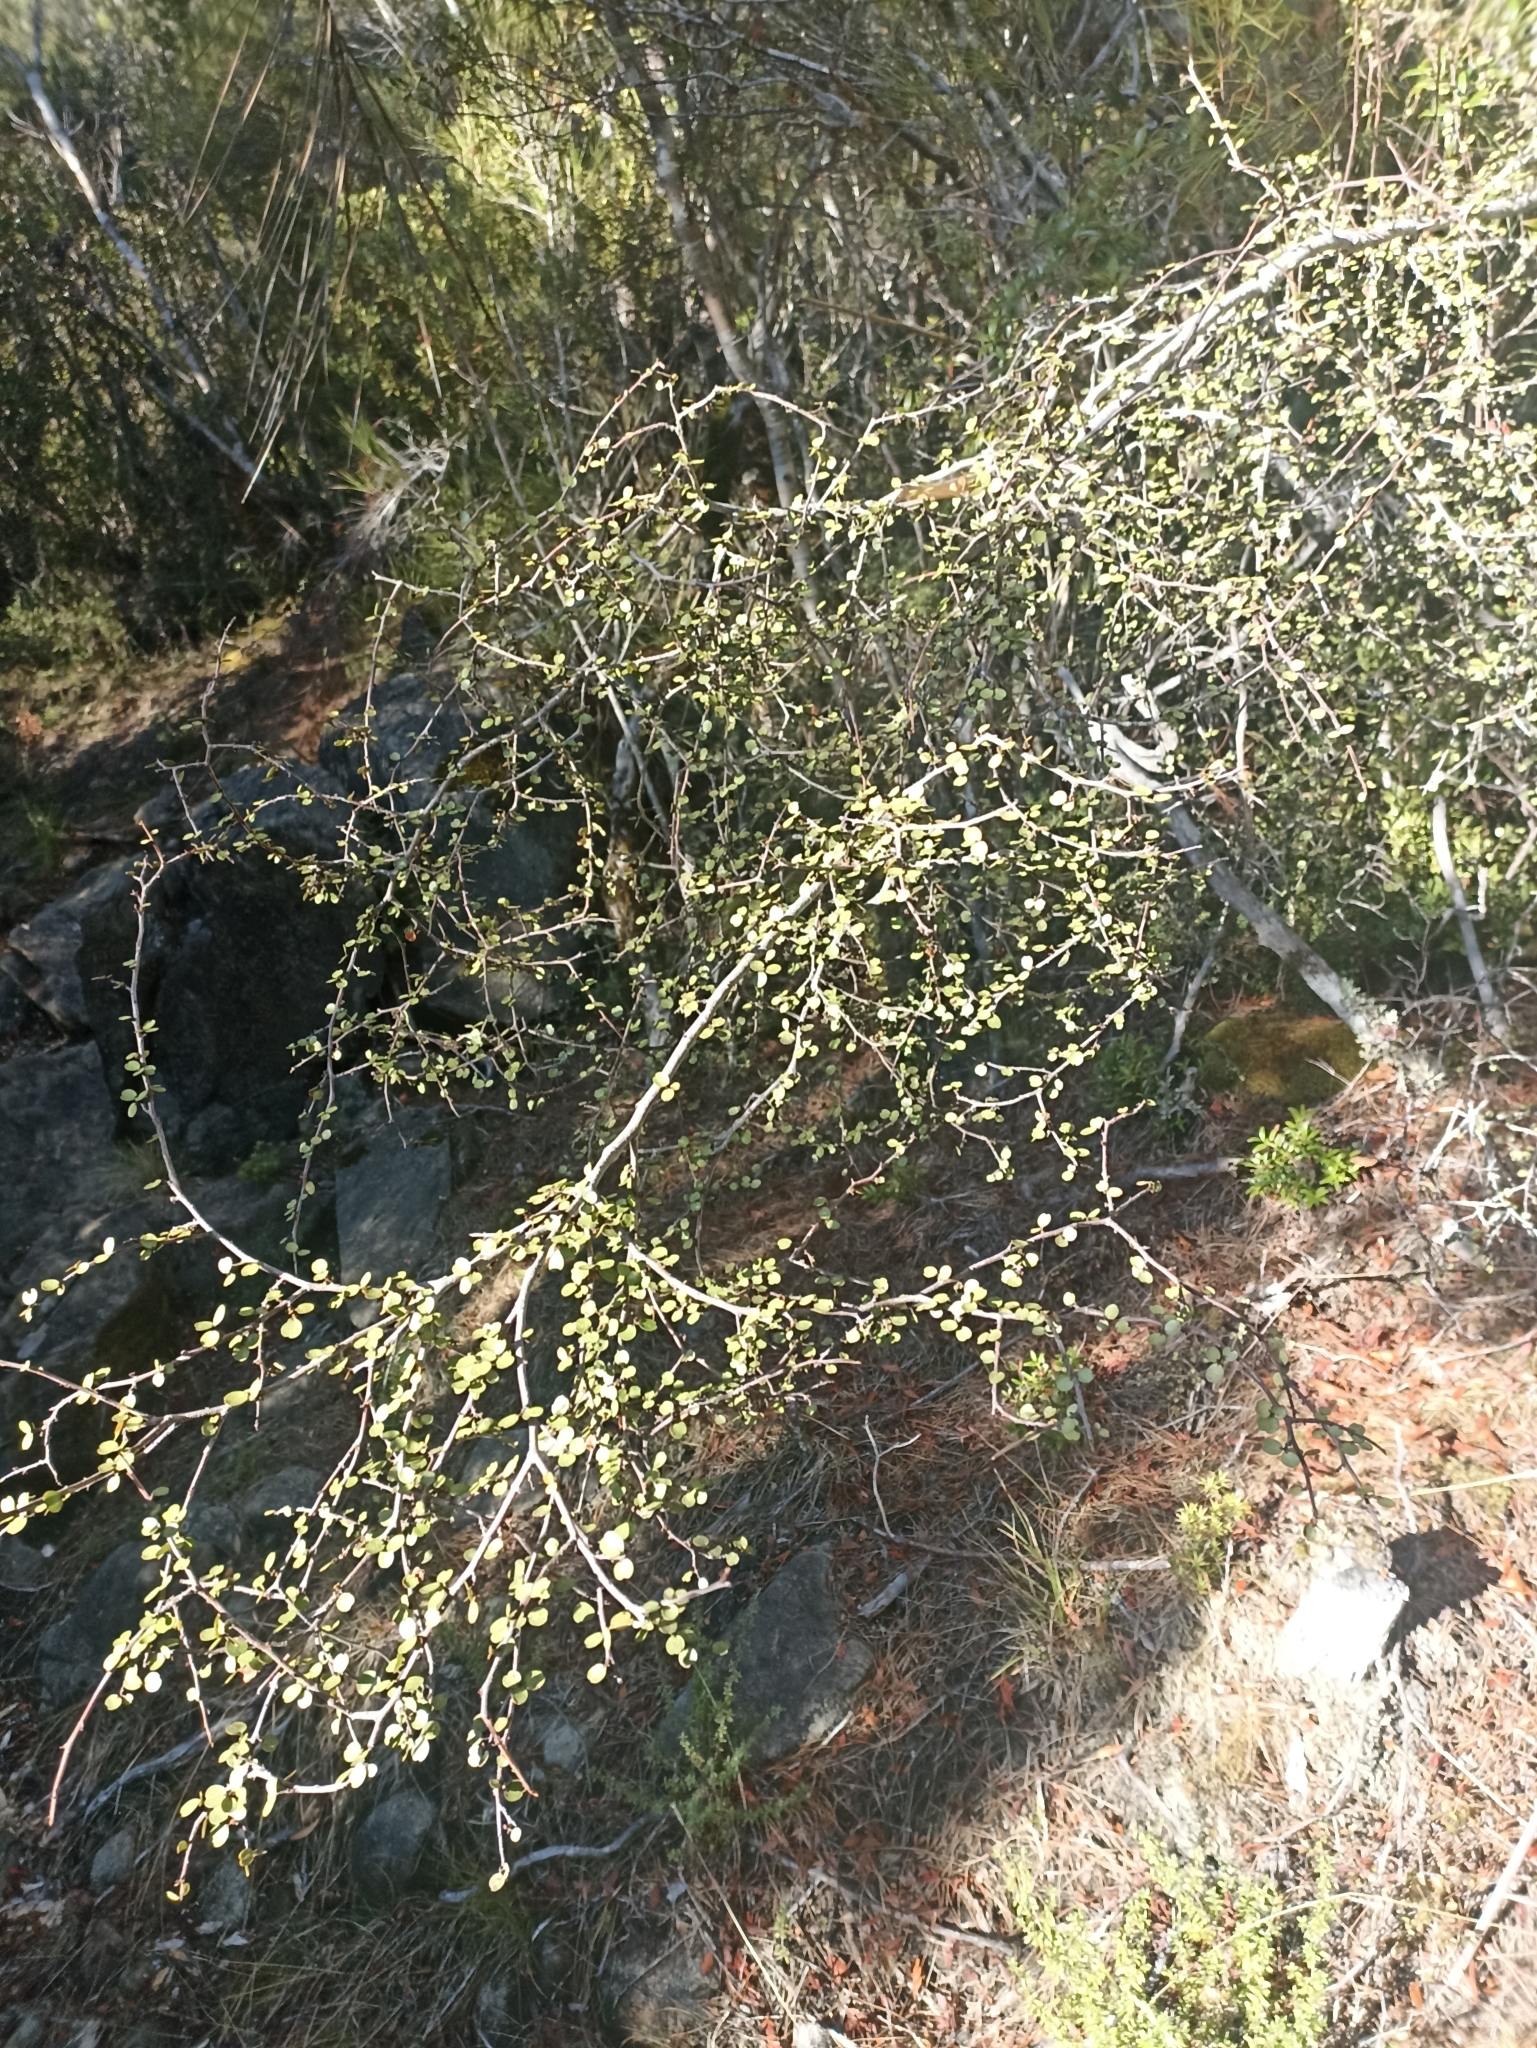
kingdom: Plantae
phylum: Tracheophyta
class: Magnoliopsida
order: Ericales
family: Primulaceae
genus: Myrsine
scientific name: Myrsine divaricata
